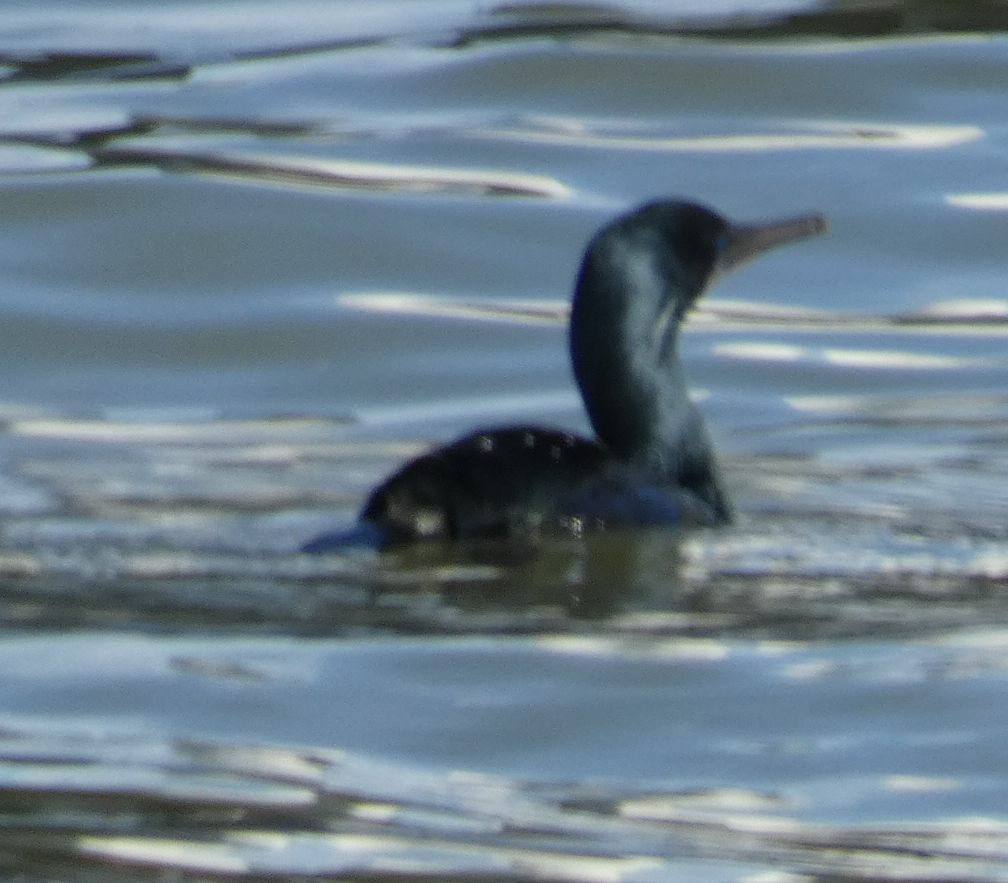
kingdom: Animalia
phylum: Chordata
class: Aves
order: Suliformes
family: Phalacrocoracidae
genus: Urile
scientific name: Urile penicillatus
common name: Brandt's cormorant
